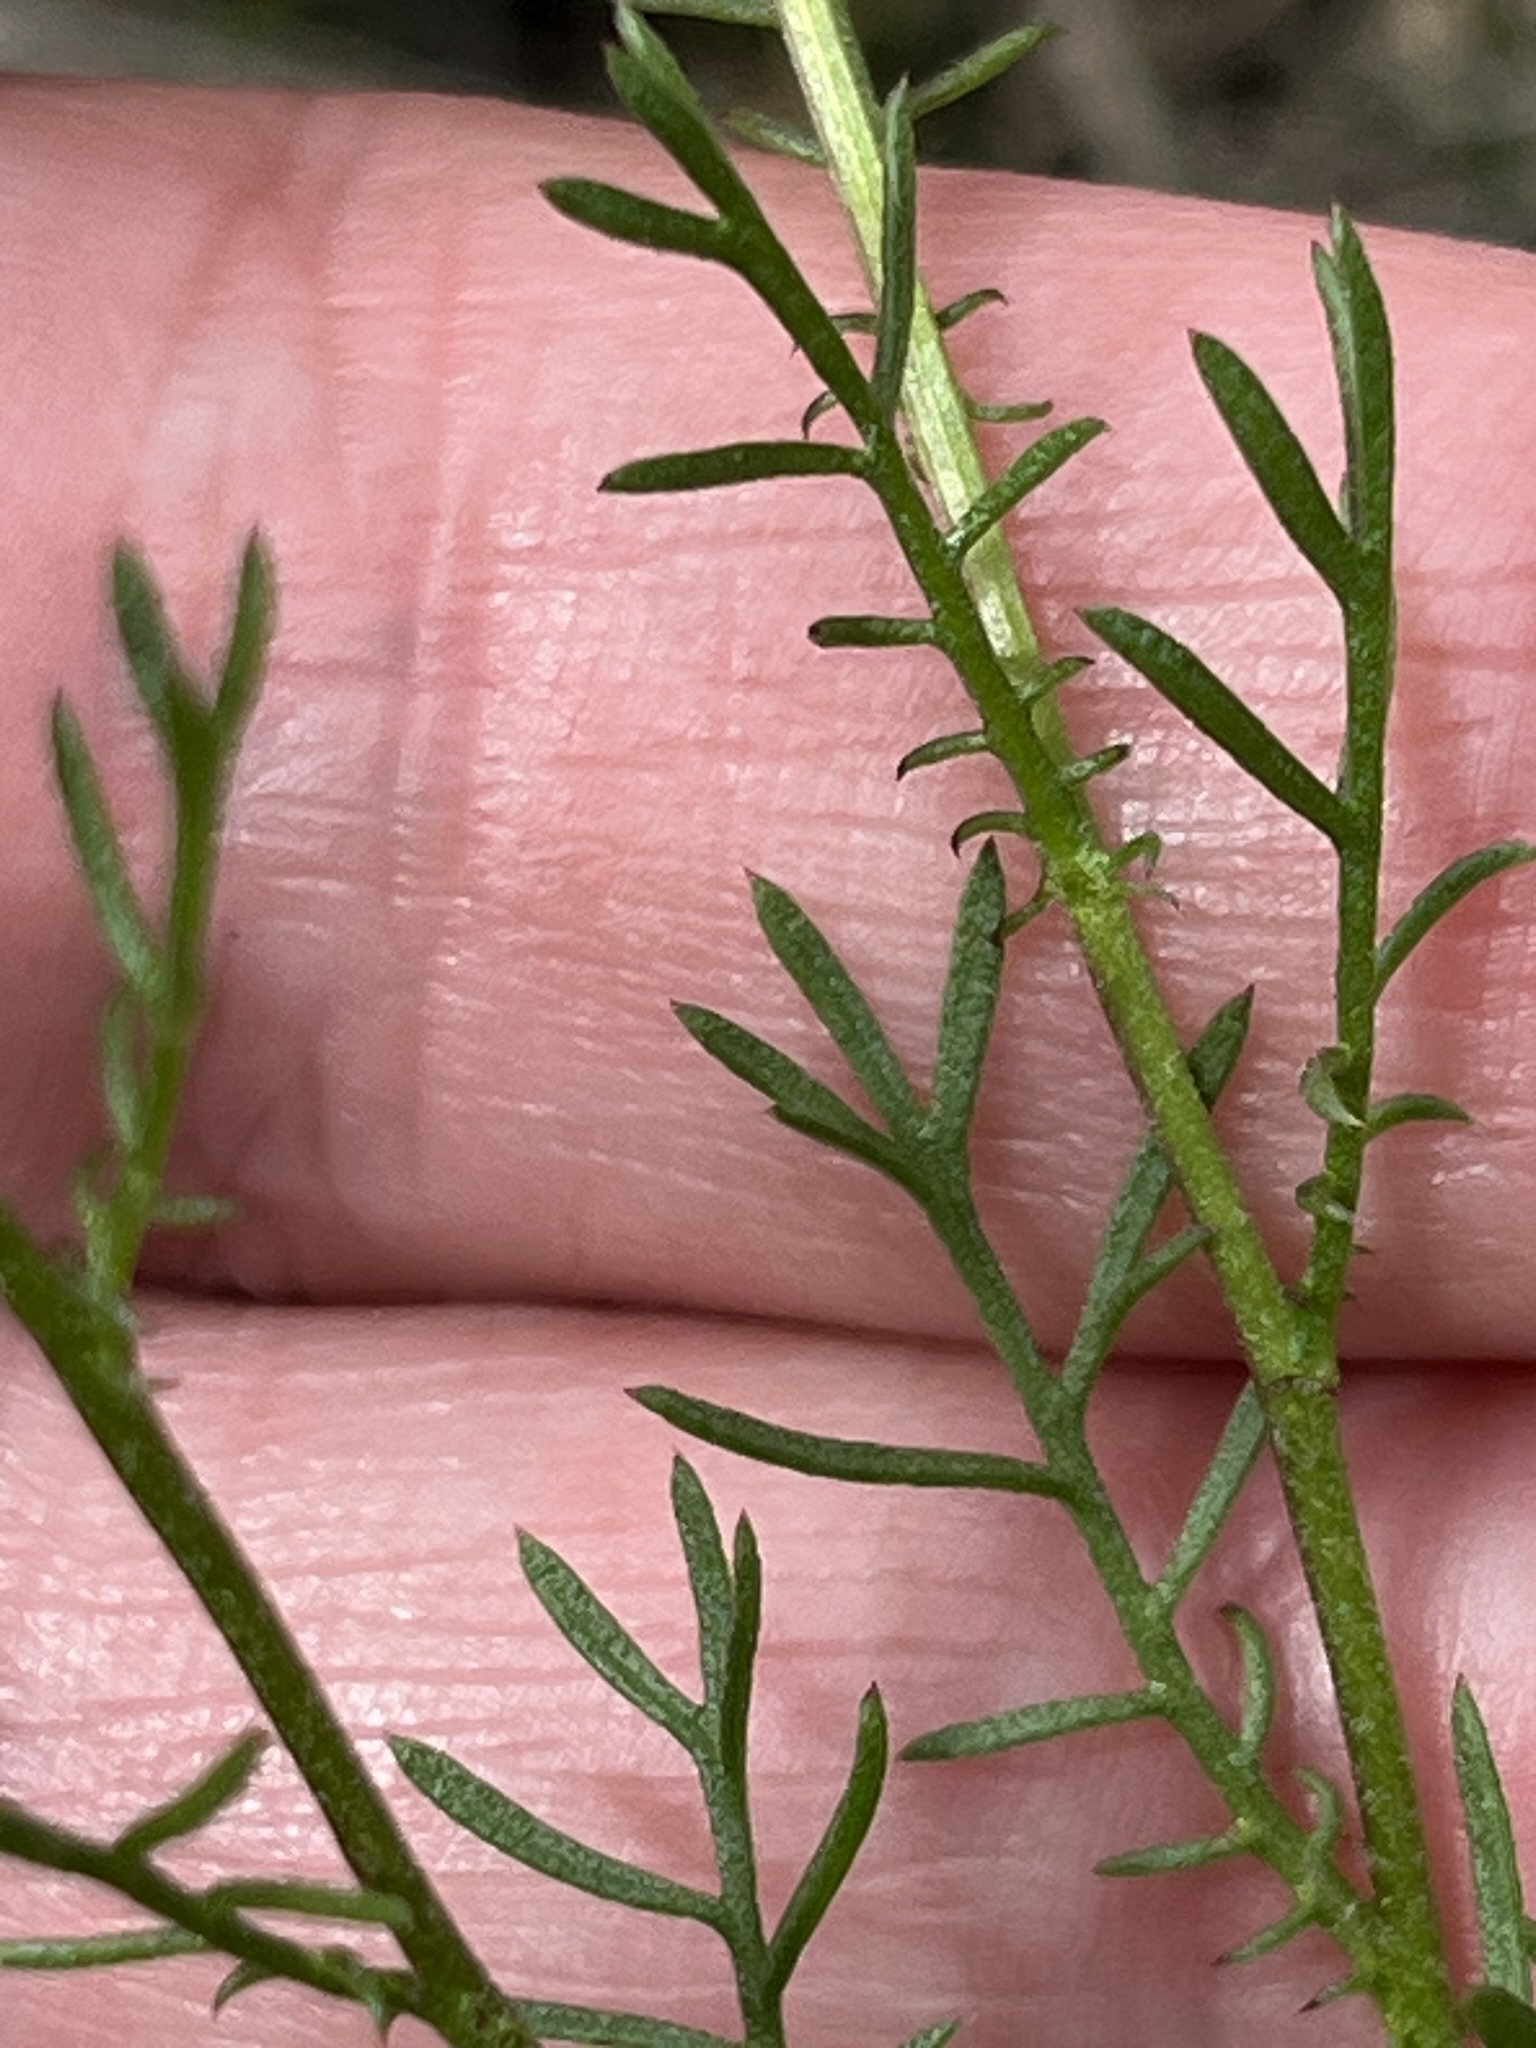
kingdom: Plantae
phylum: Tracheophyta
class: Magnoliopsida
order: Asterales
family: Asteraceae
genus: Ursinia
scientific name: Ursinia anthemoides
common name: Ursinia
